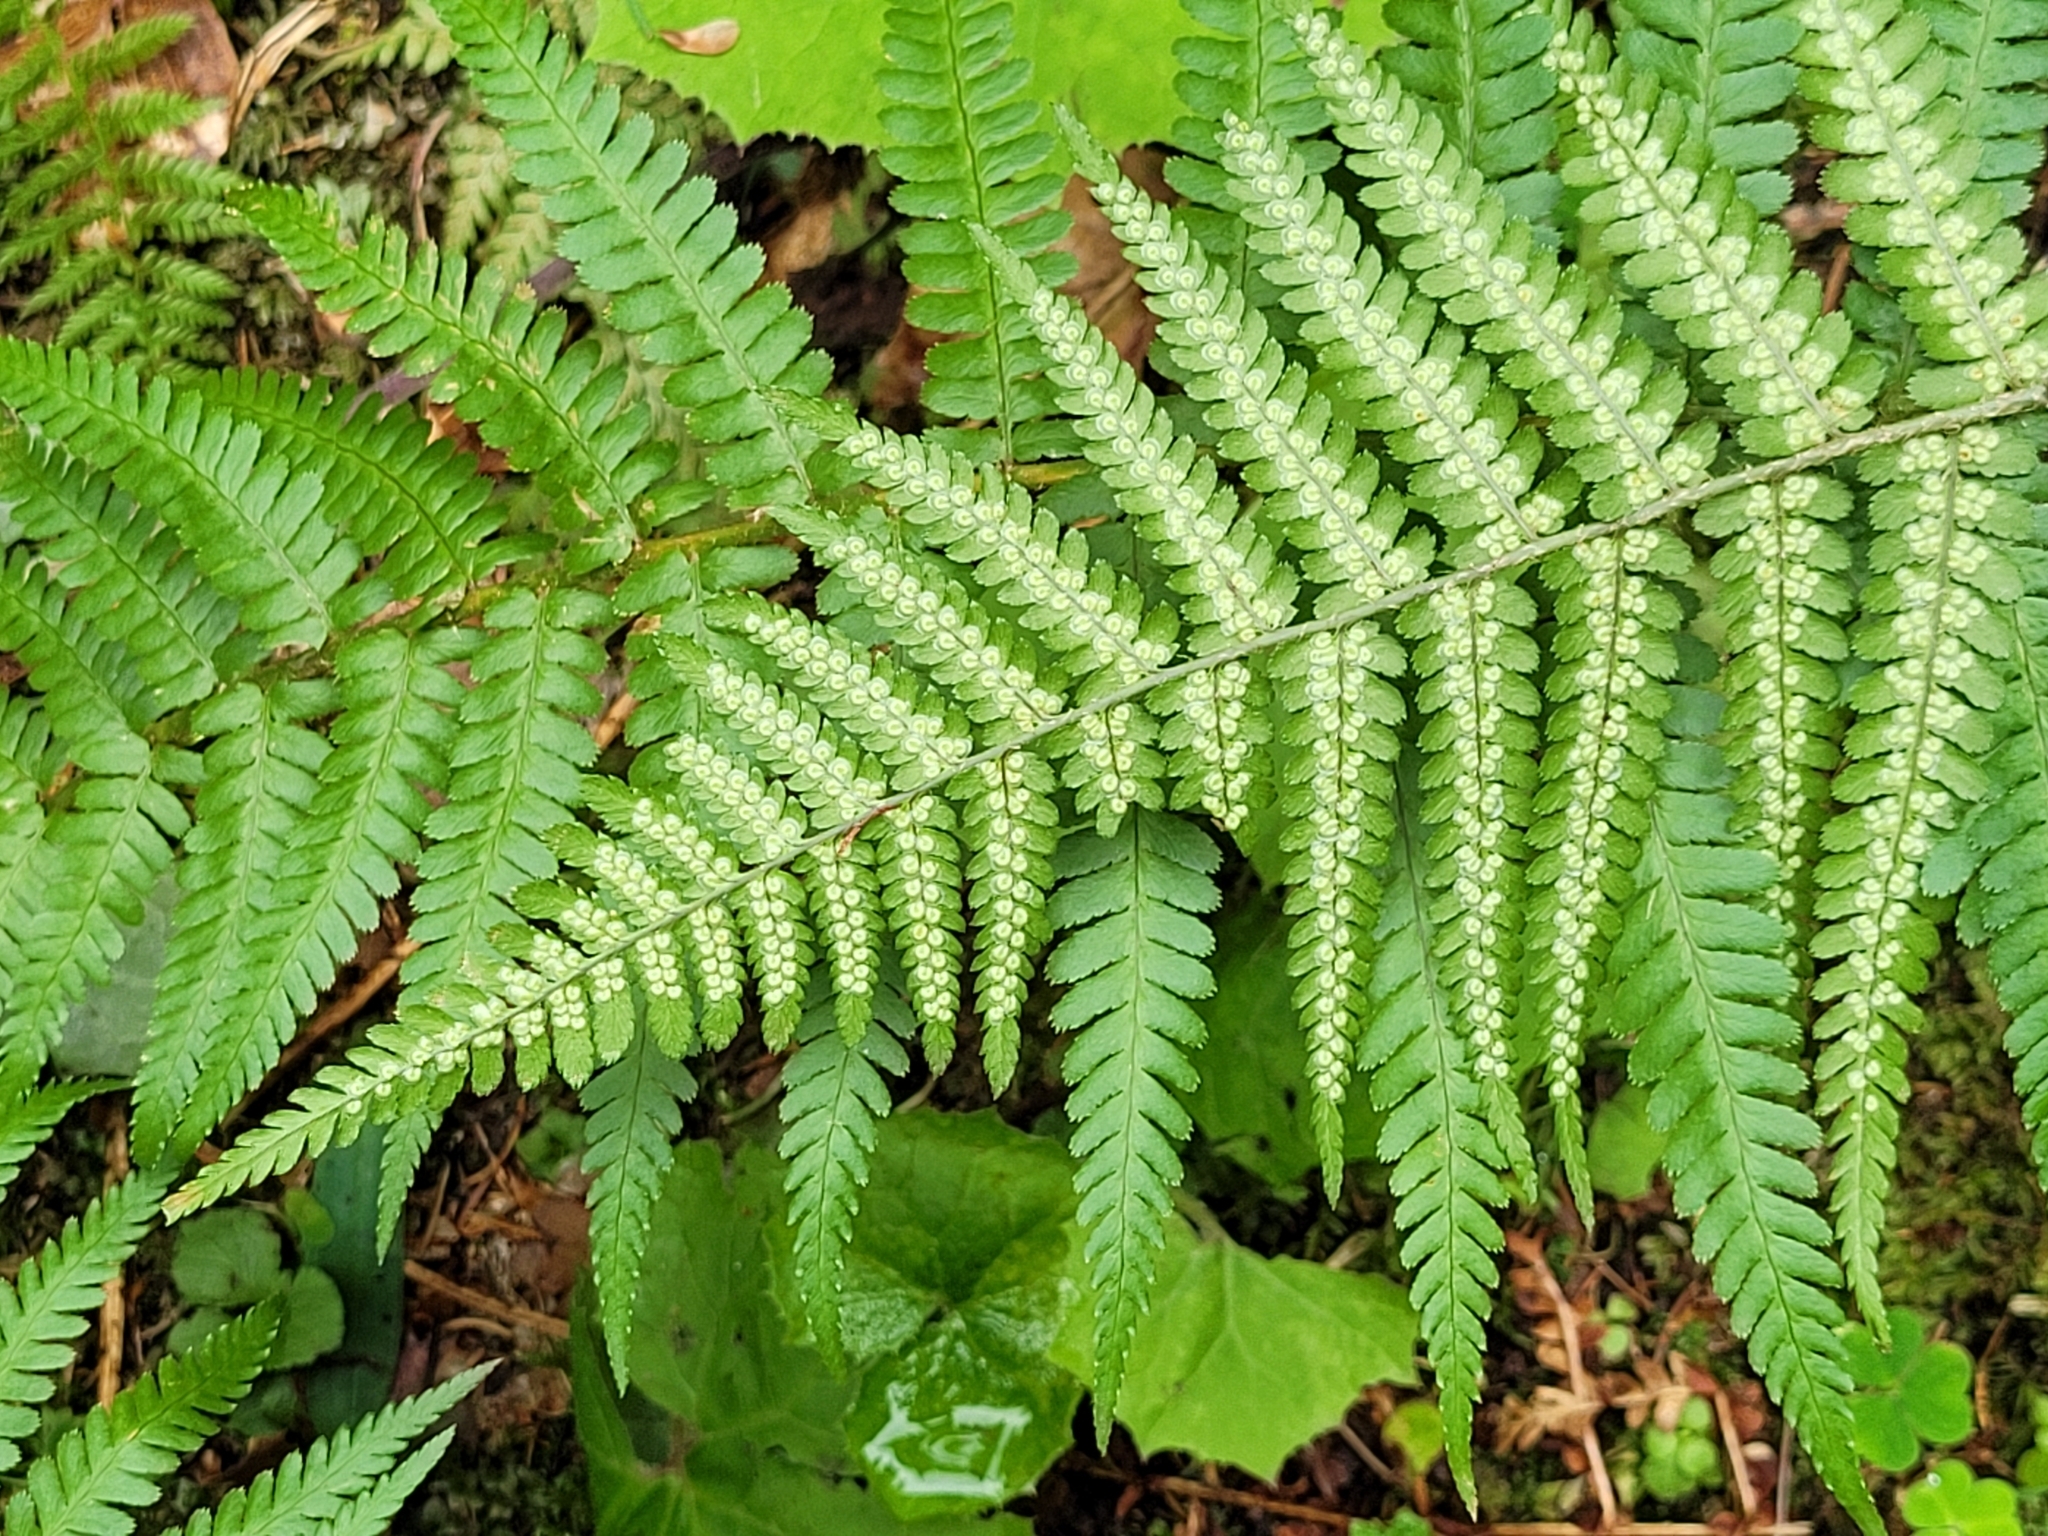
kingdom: Plantae
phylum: Tracheophyta
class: Polypodiopsida
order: Polypodiales
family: Dryopteridaceae
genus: Dryopteris
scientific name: Dryopteris filix-mas
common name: Male fern
